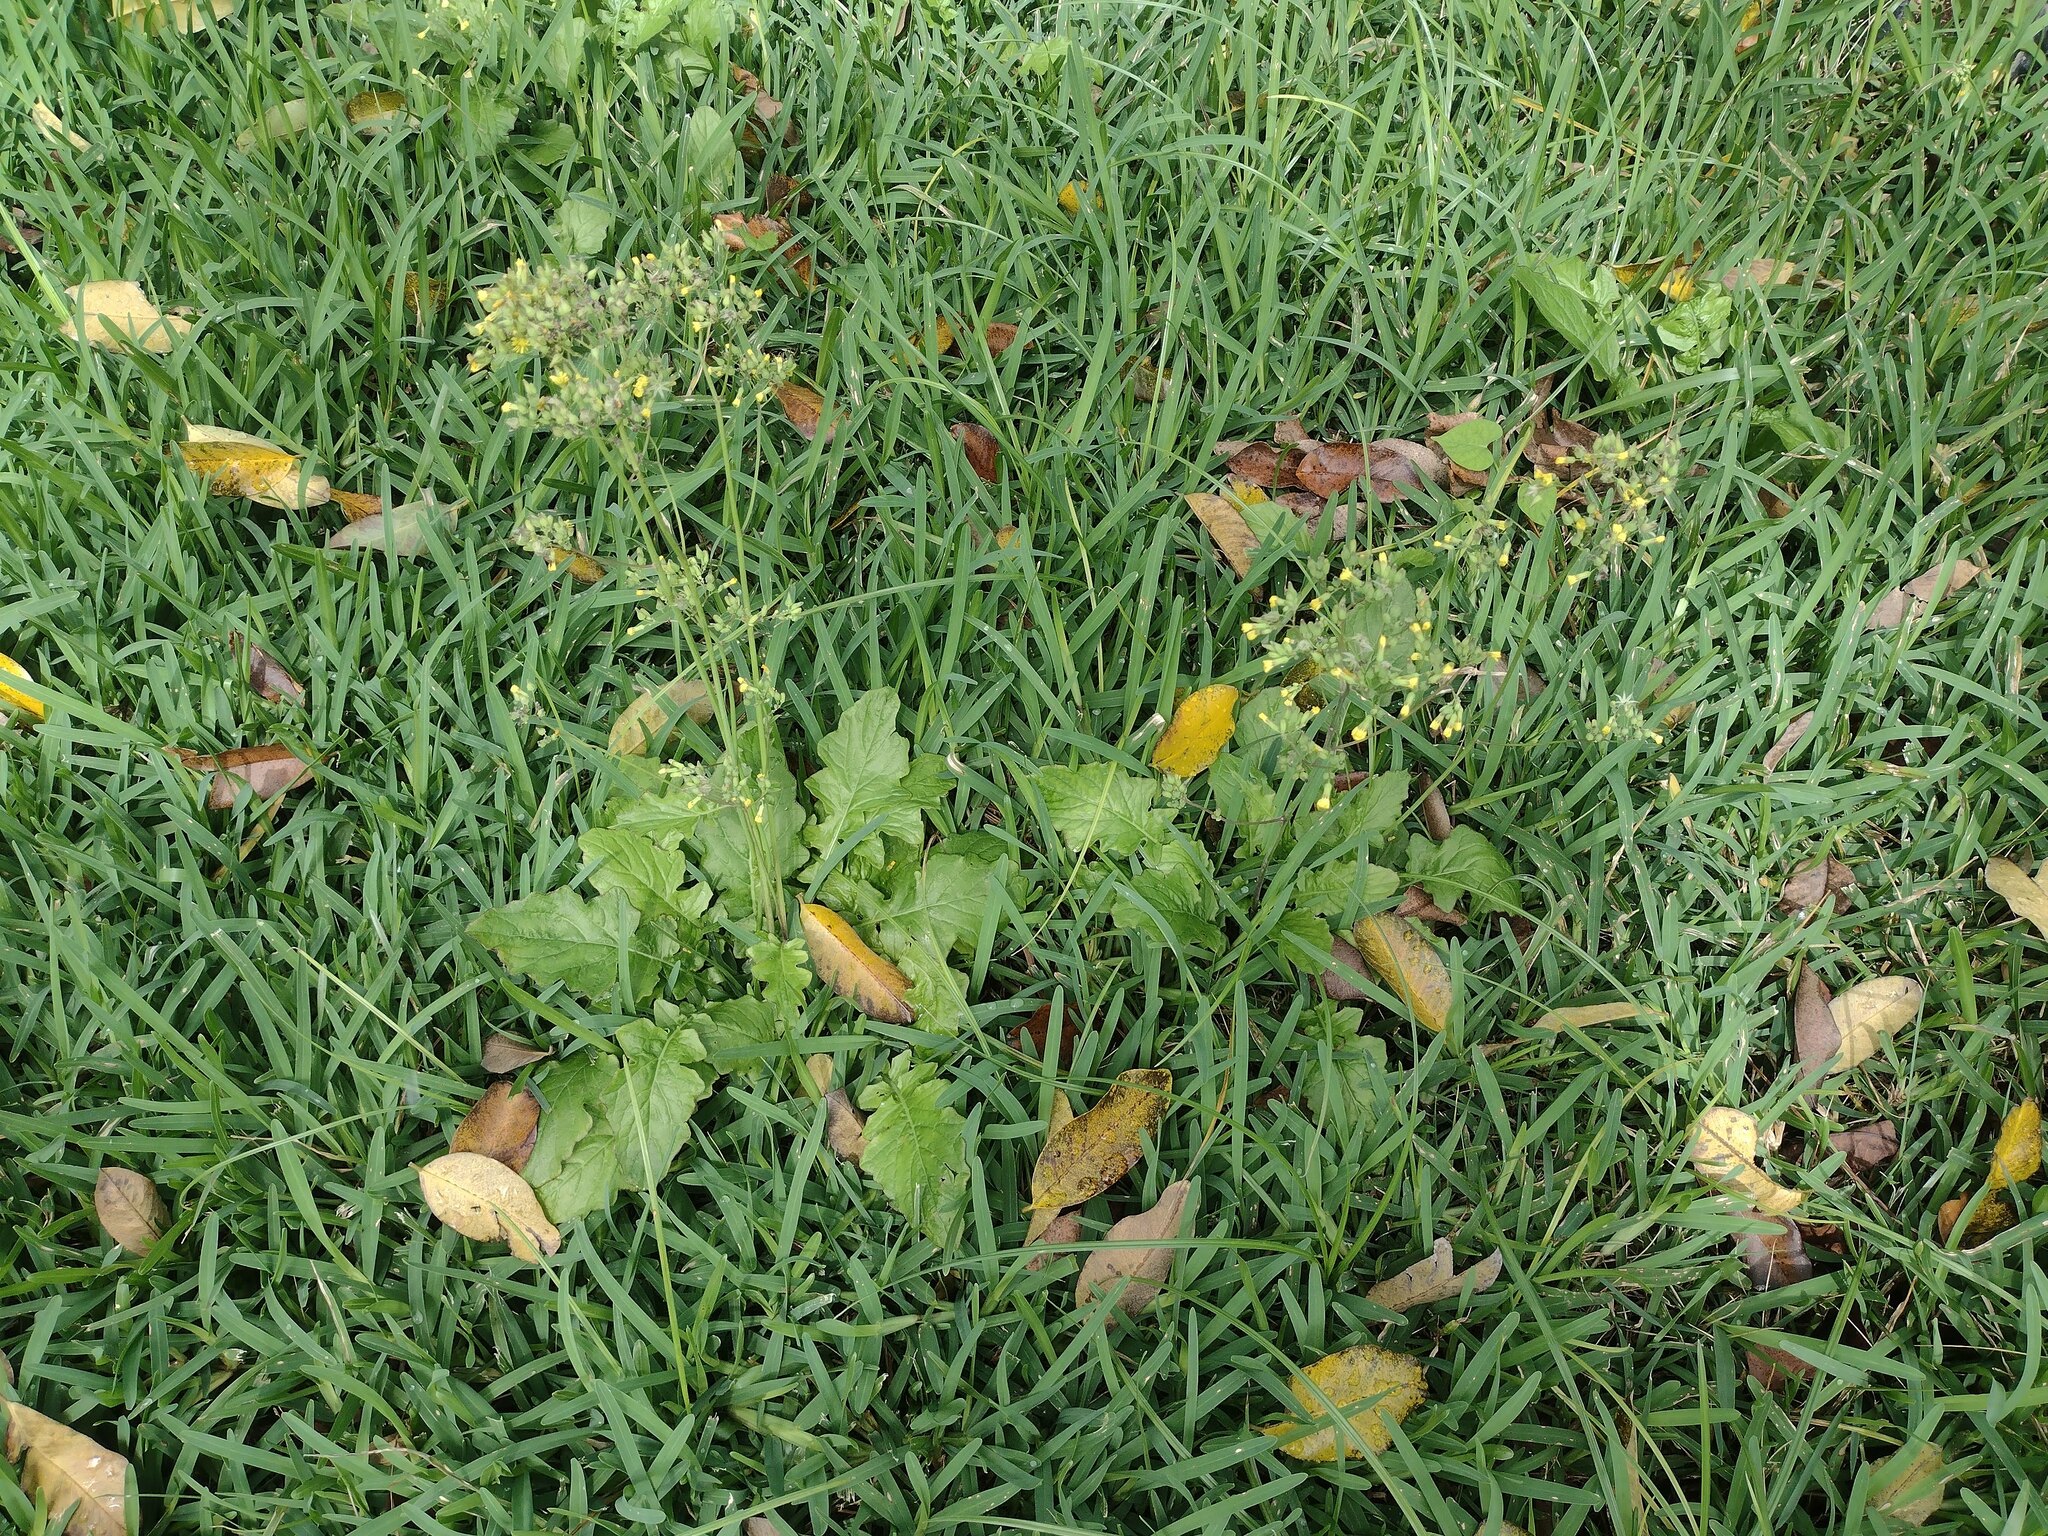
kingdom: Plantae
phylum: Tracheophyta
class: Magnoliopsida
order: Asterales
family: Asteraceae
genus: Youngia
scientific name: Youngia japonica
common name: Oriental false hawksbeard
